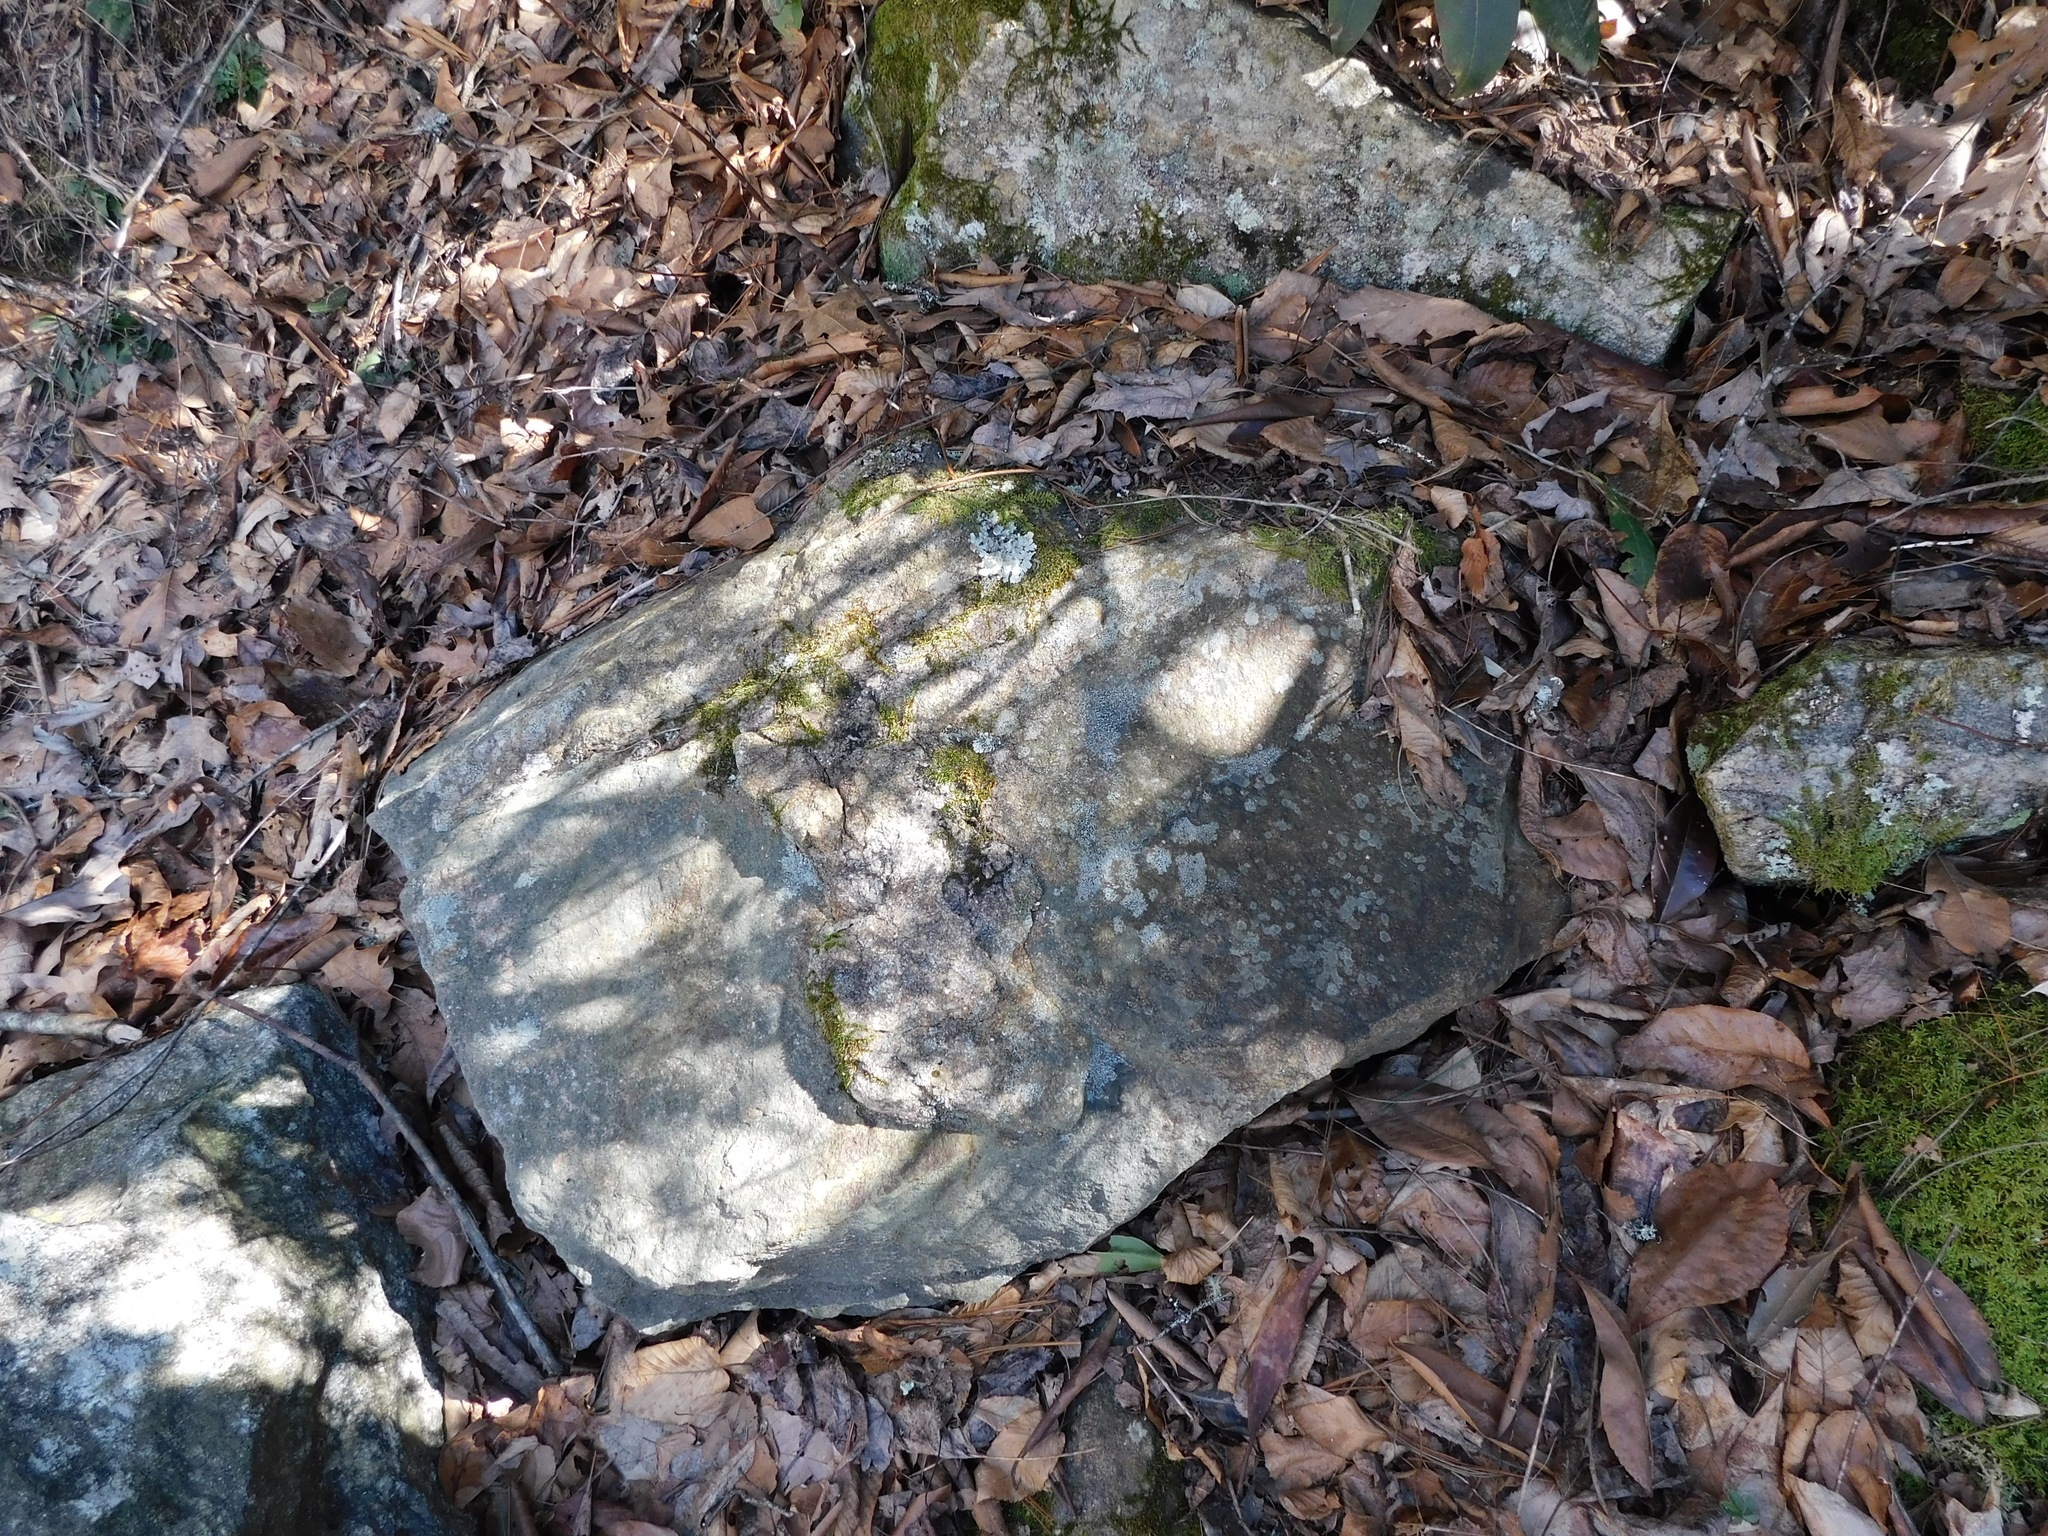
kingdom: Fungi
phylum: Ascomycota
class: Lecanoromycetes
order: Lecanorales
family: Stereocaulaceae
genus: Stereocaulon
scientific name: Stereocaulon pileatum
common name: Pixie foam
